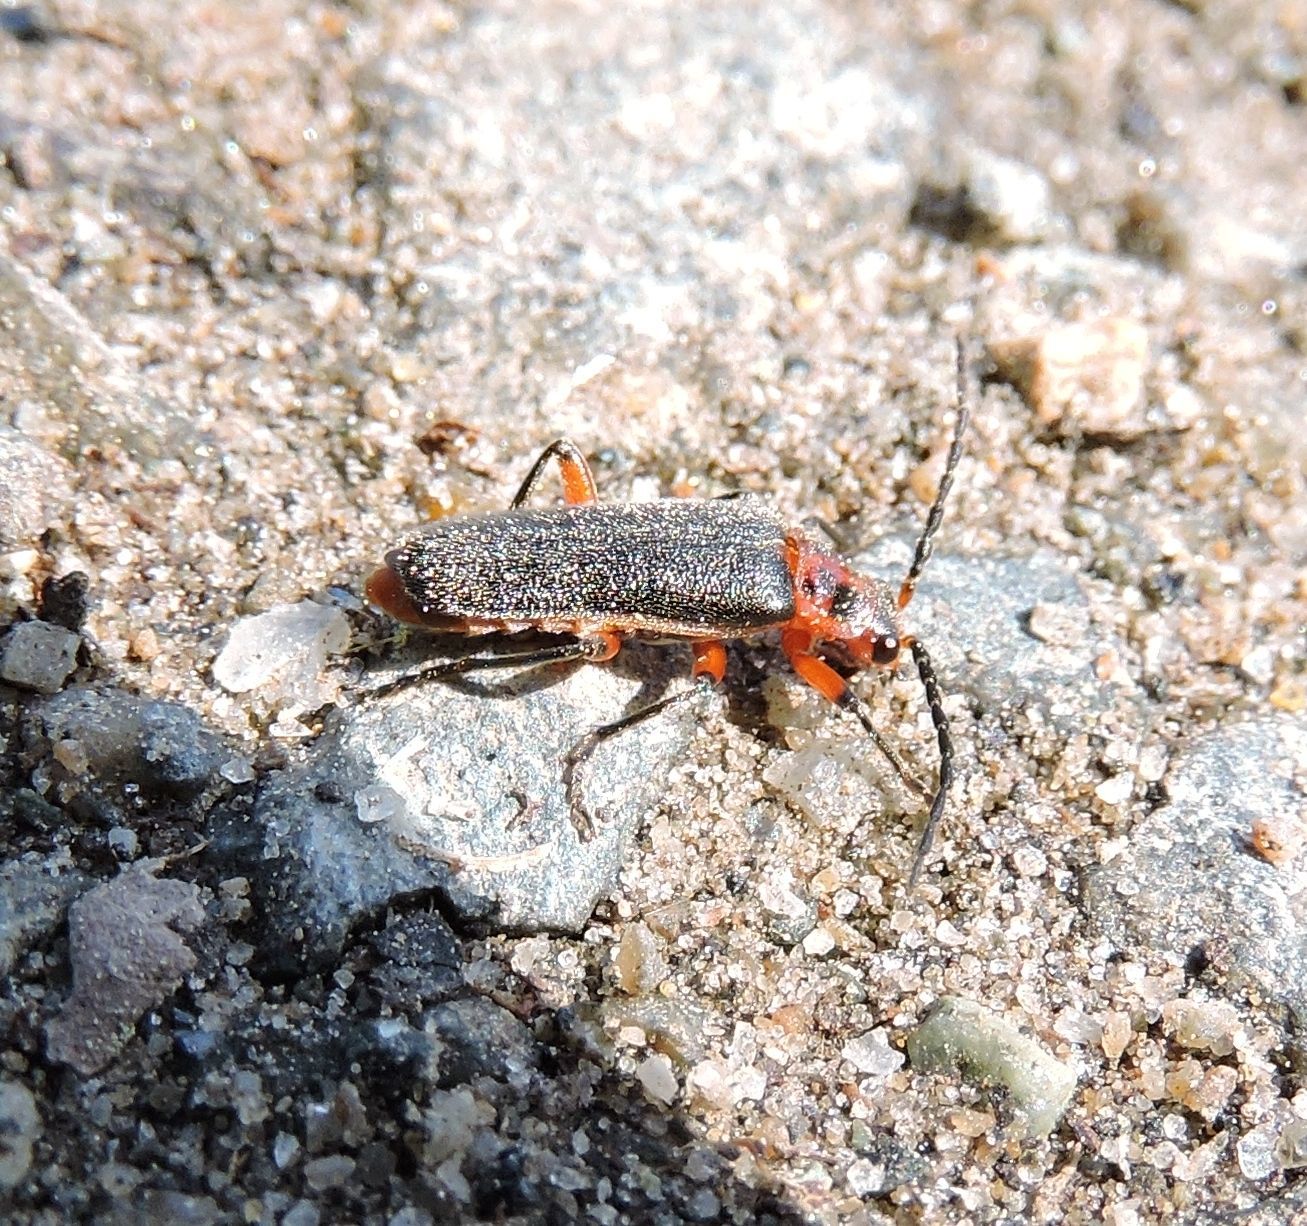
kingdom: Animalia
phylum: Arthropoda
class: Insecta
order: Coleoptera
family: Cantharidae
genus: Atalantycha
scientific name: Atalantycha bilineata
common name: Two-lined leatherwing
